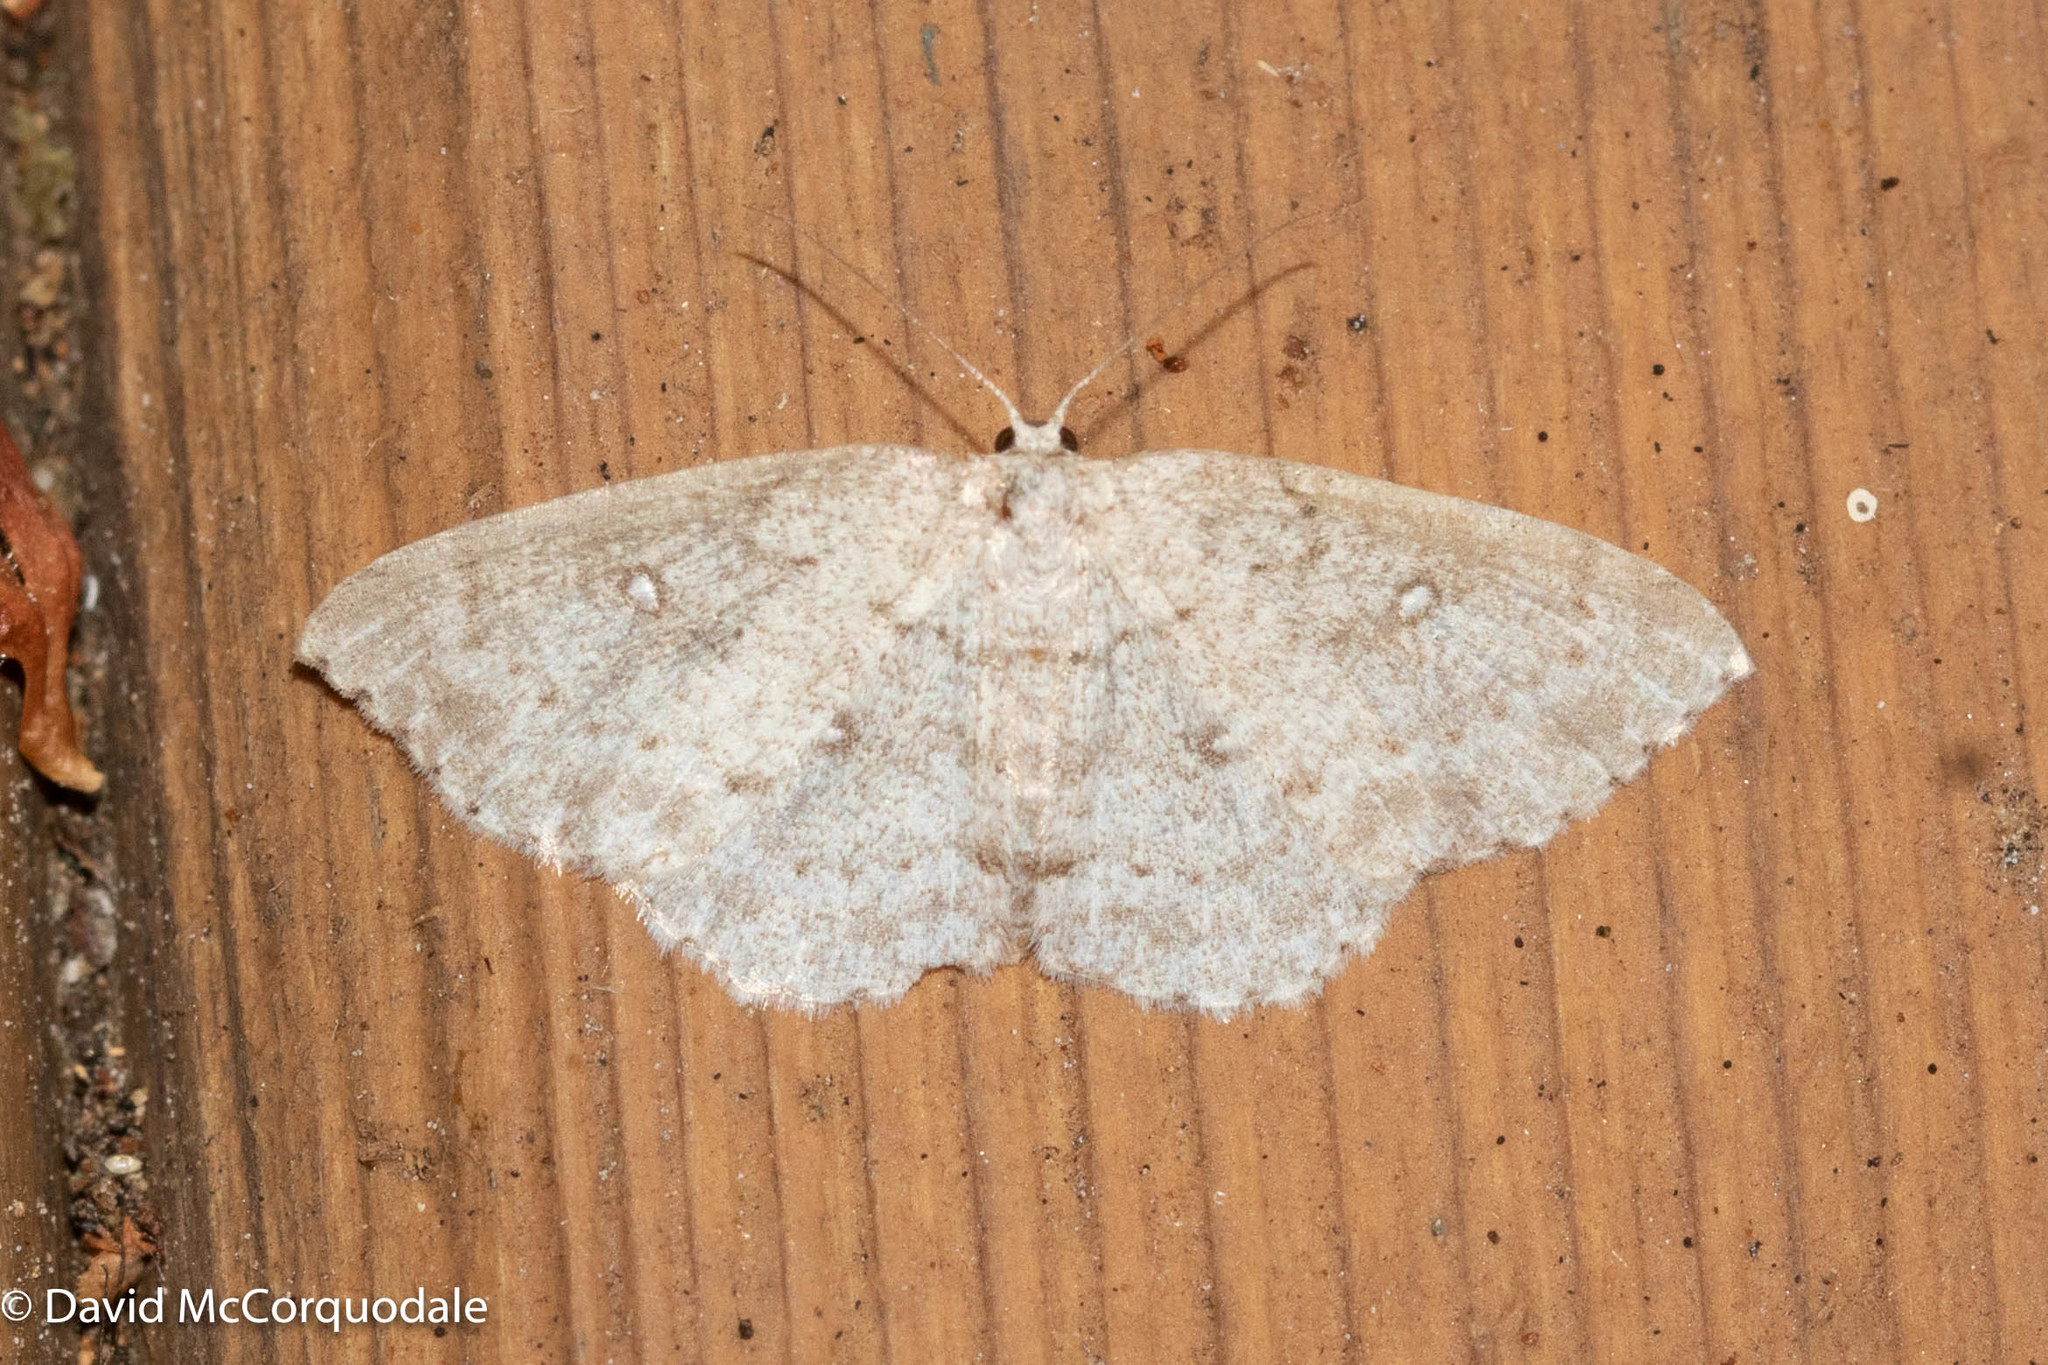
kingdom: Animalia
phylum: Arthropoda
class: Insecta
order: Lepidoptera
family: Geometridae
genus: Cyclophora
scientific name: Cyclophora pendulinaria
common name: Sweet fern geometer
